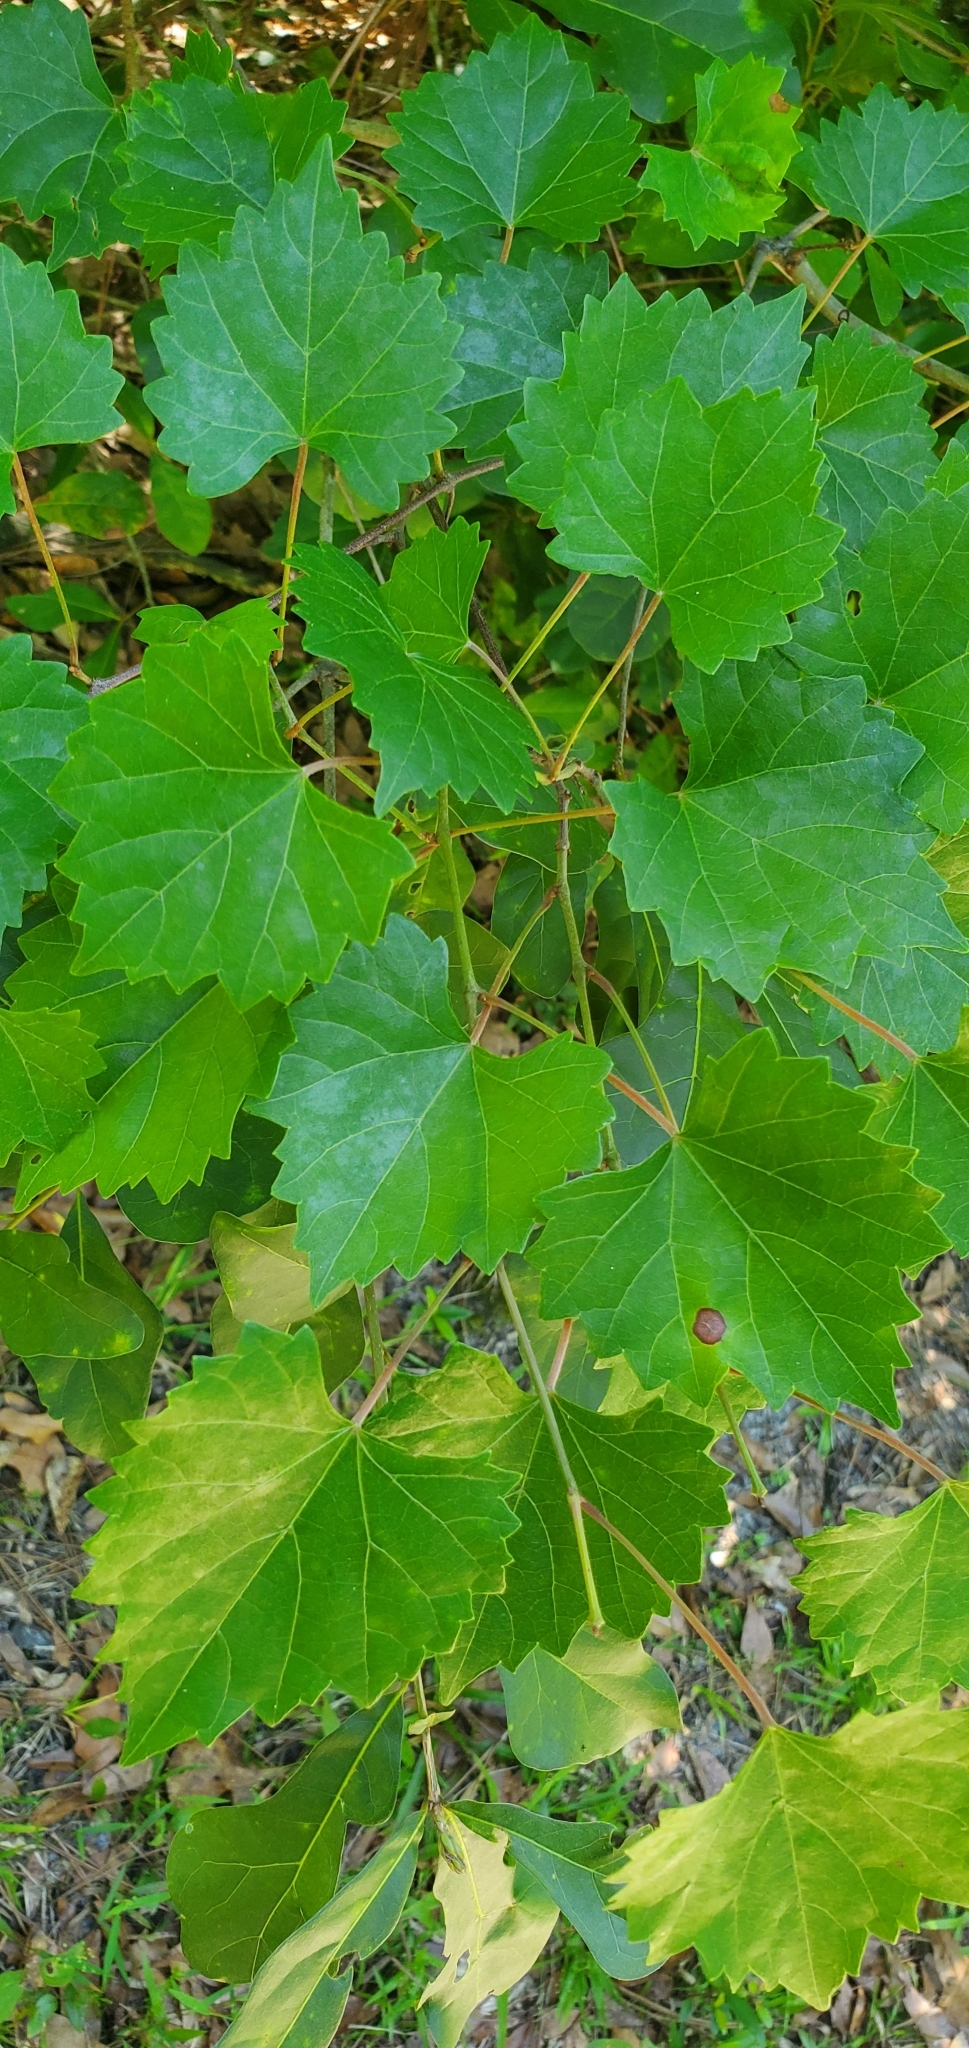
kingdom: Plantae
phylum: Tracheophyta
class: Magnoliopsida
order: Vitales
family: Vitaceae
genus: Vitis
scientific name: Vitis rotundifolia
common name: Muscadine grape
